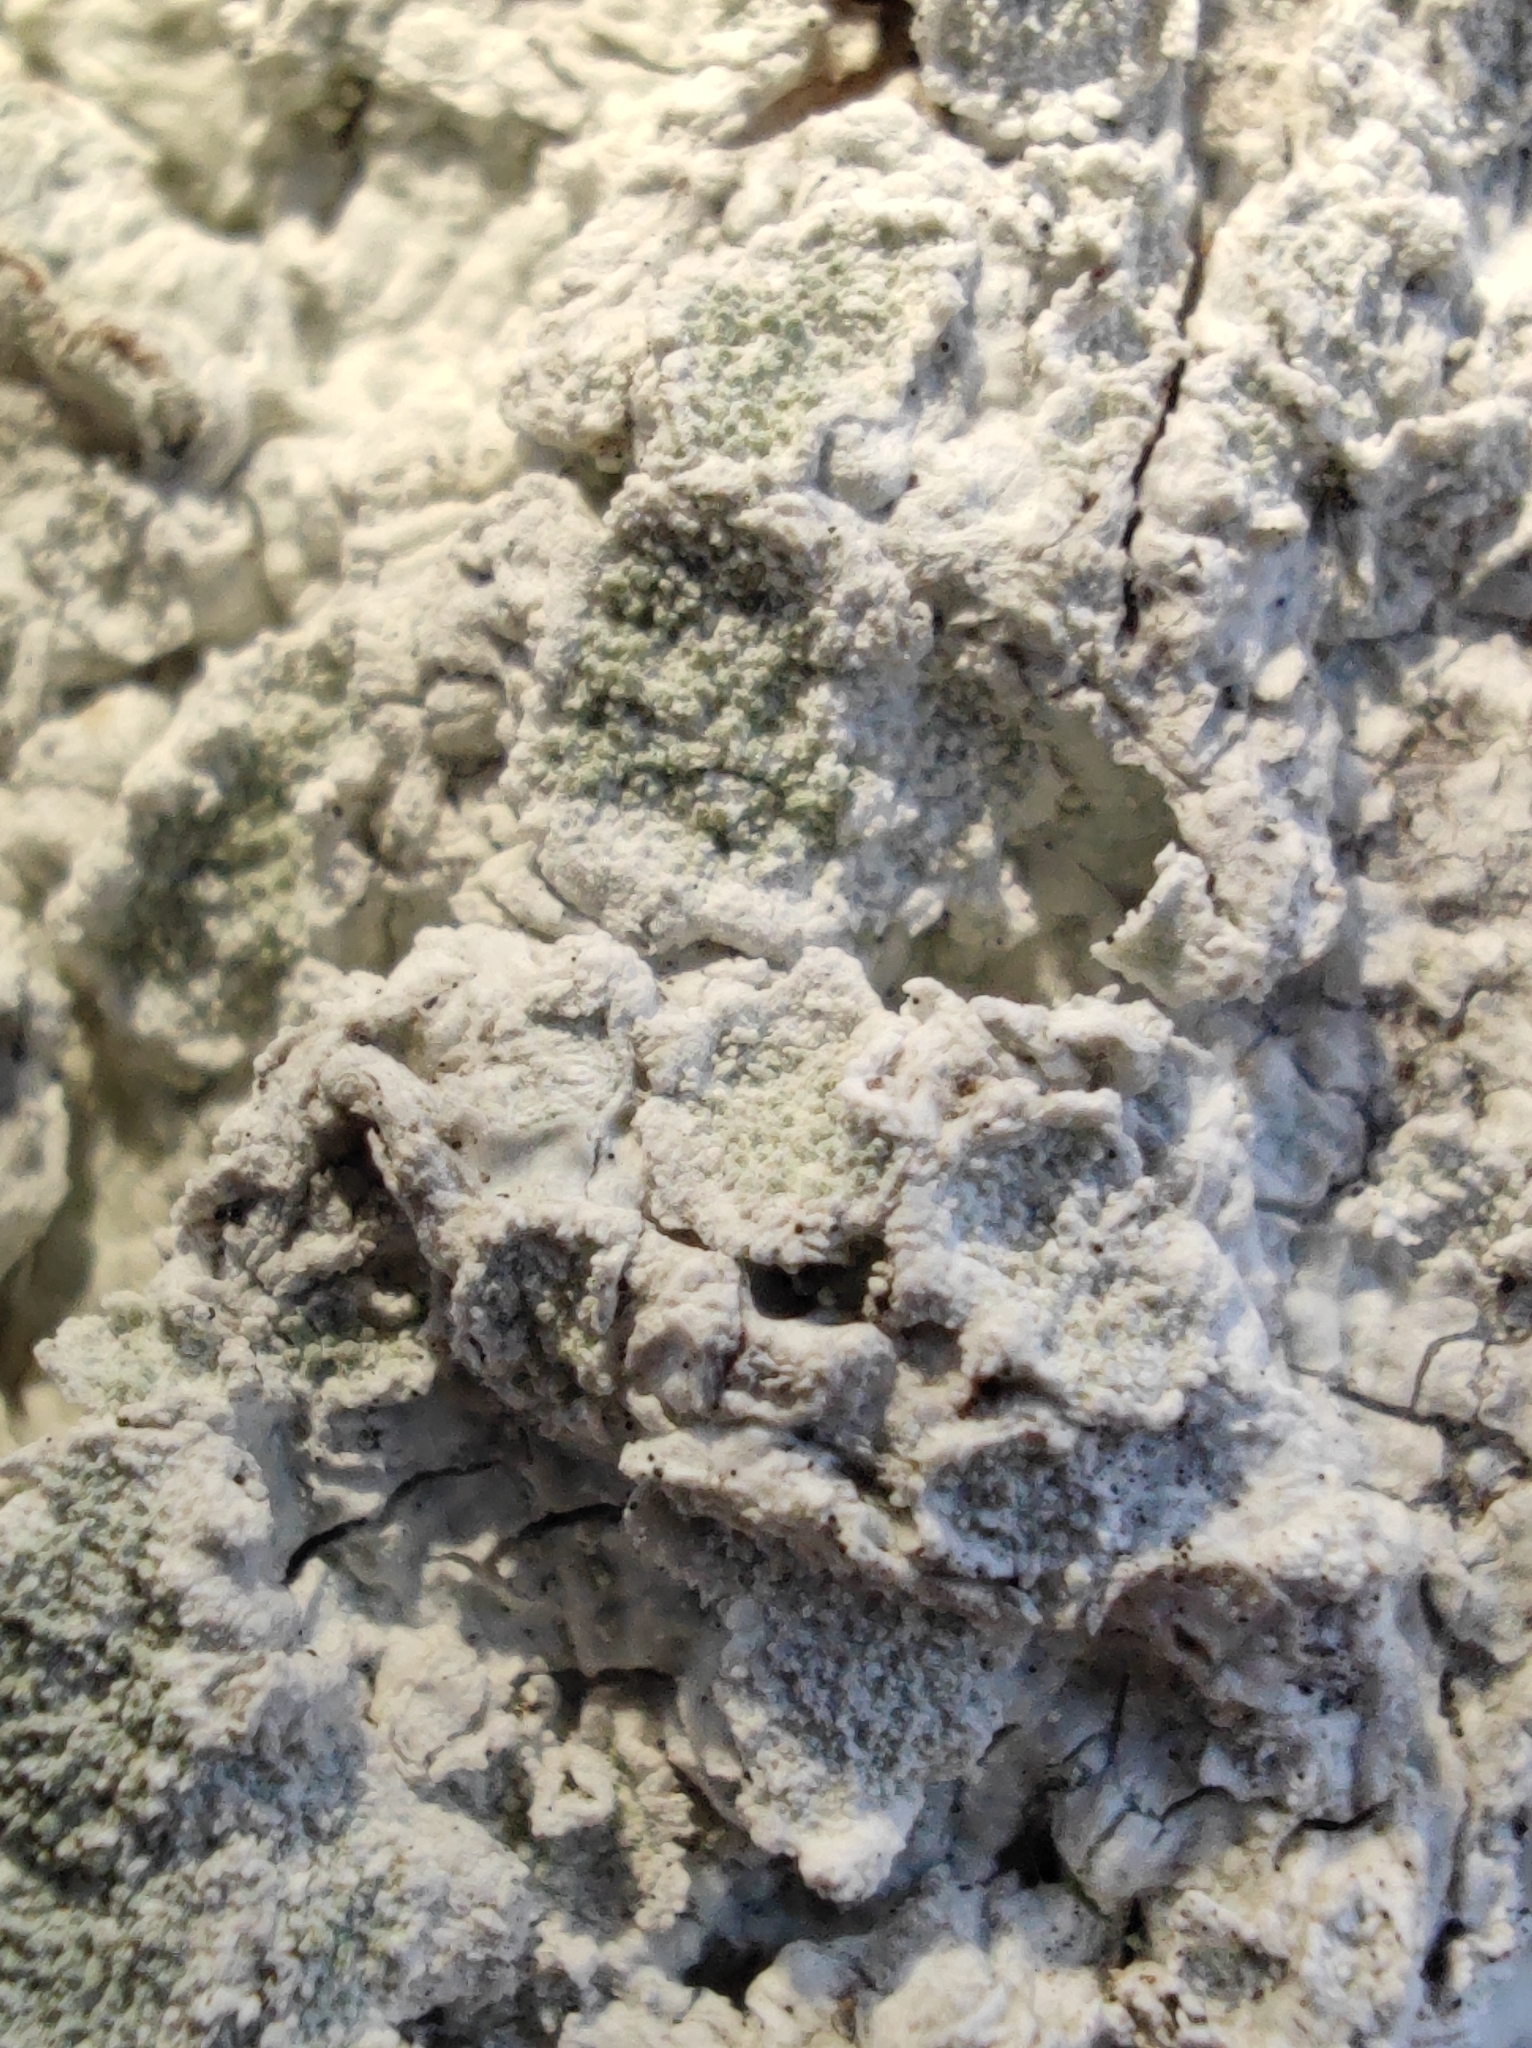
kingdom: Fungi
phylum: Ascomycota
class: Lecanoromycetes
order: Ostropales
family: Phlyctidaceae
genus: Phlyctis
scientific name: Phlyctis argena
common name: Whitewash lichen
